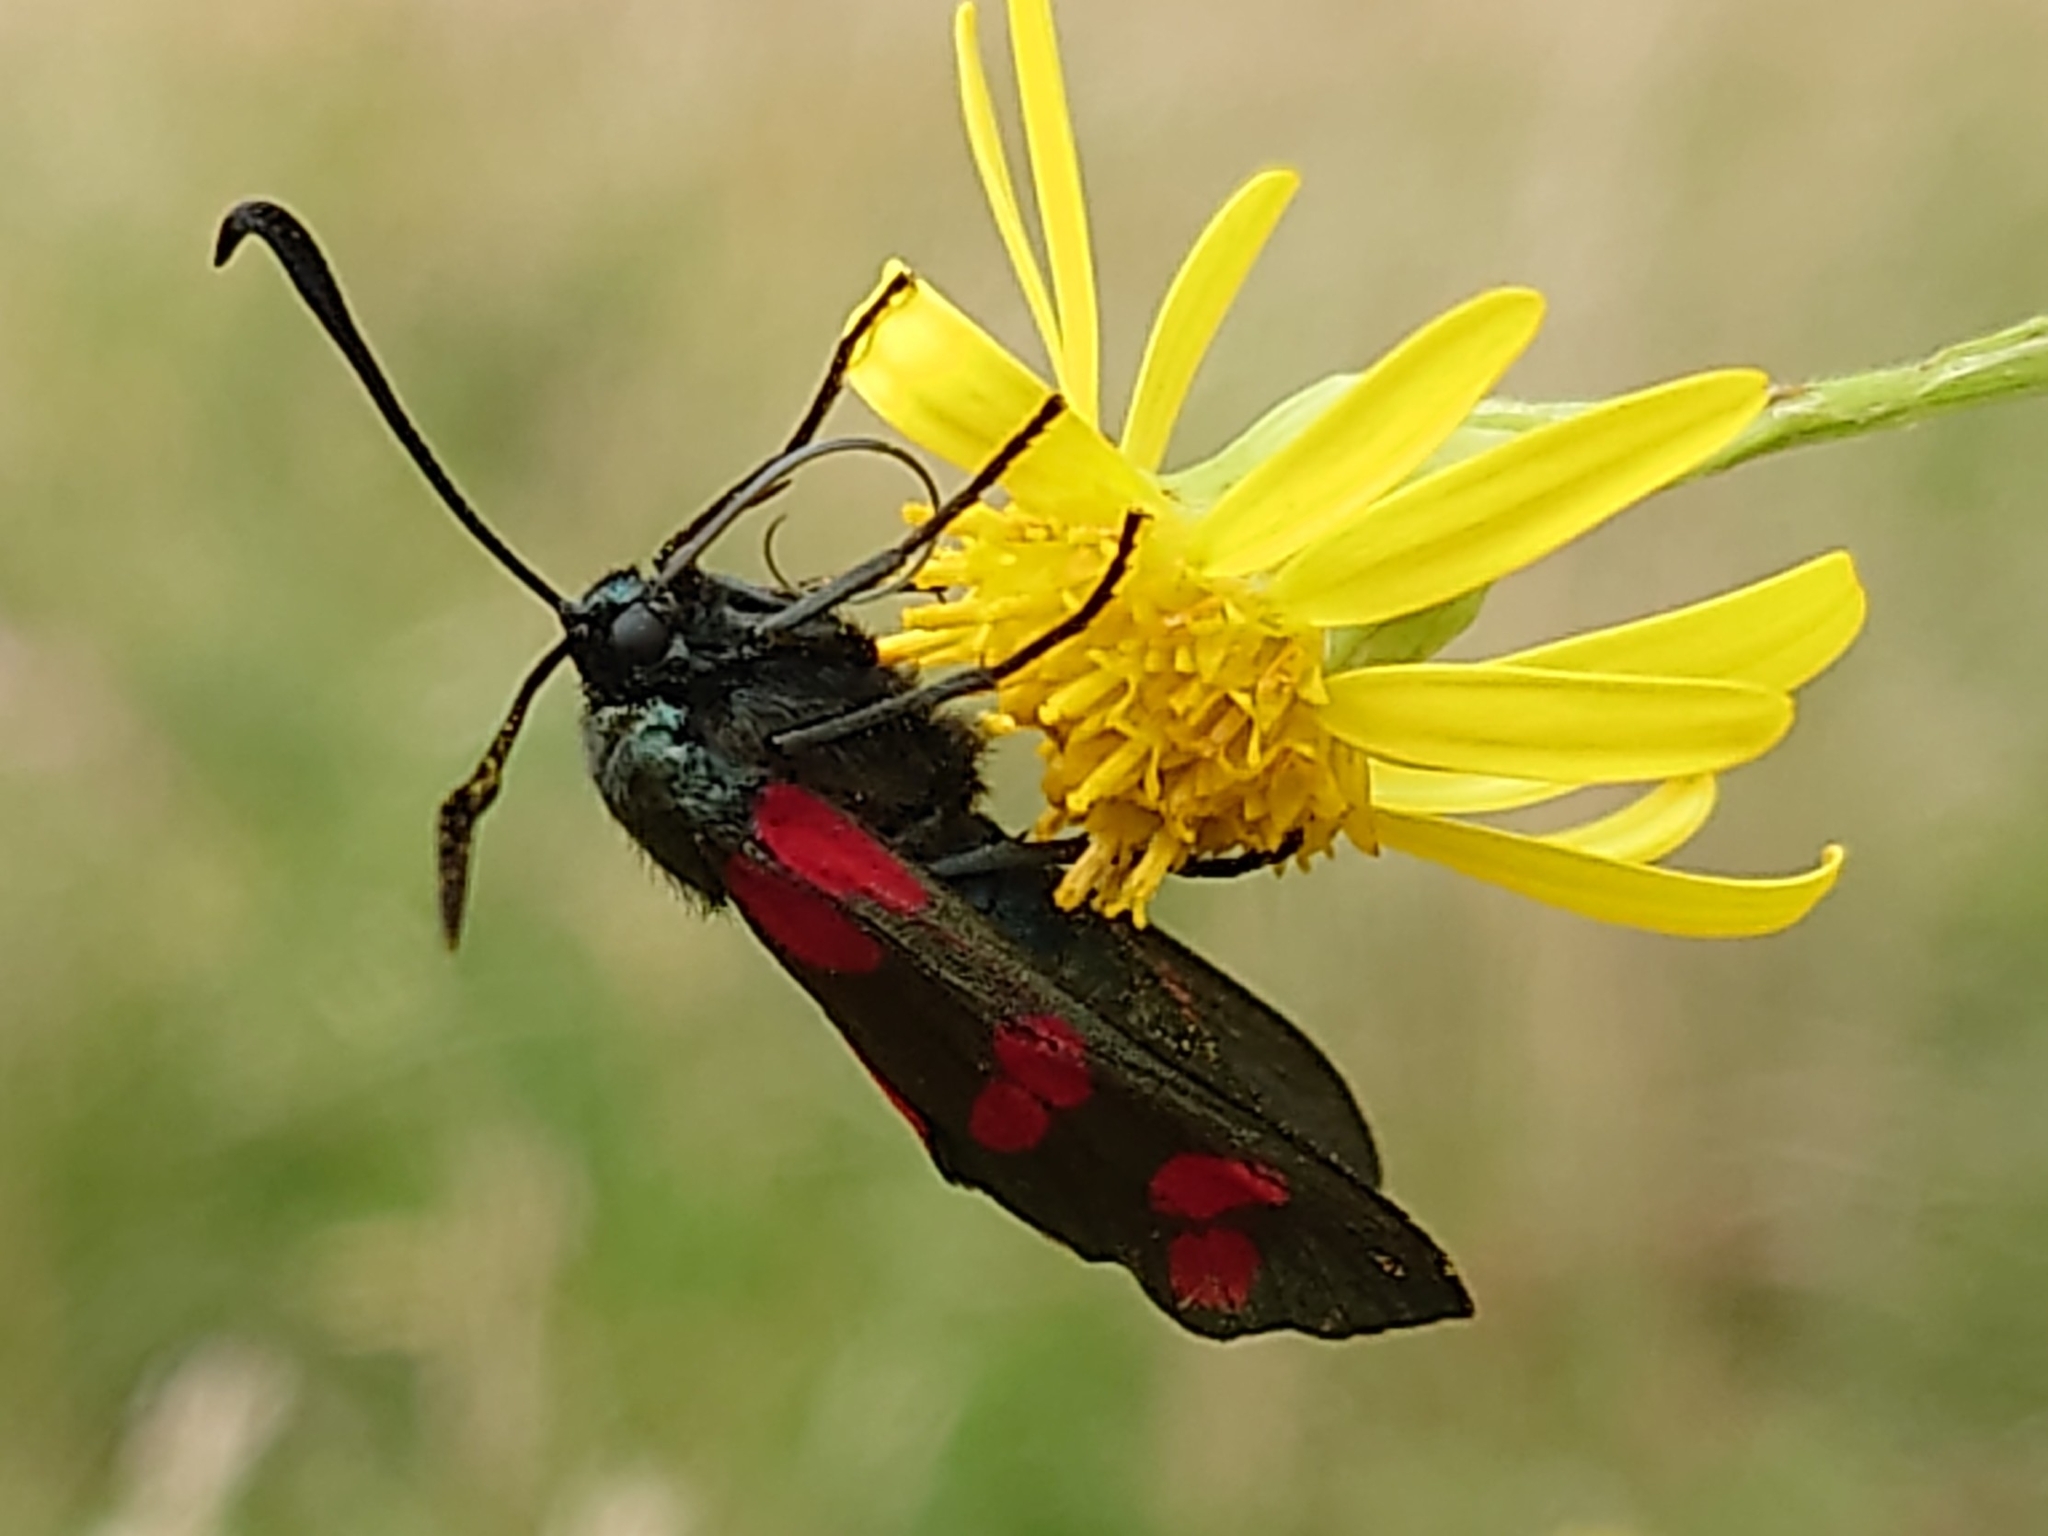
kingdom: Animalia
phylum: Arthropoda
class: Insecta
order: Lepidoptera
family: Zygaenidae
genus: Zygaena
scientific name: Zygaena filipendulae
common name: Six-spot burnet
